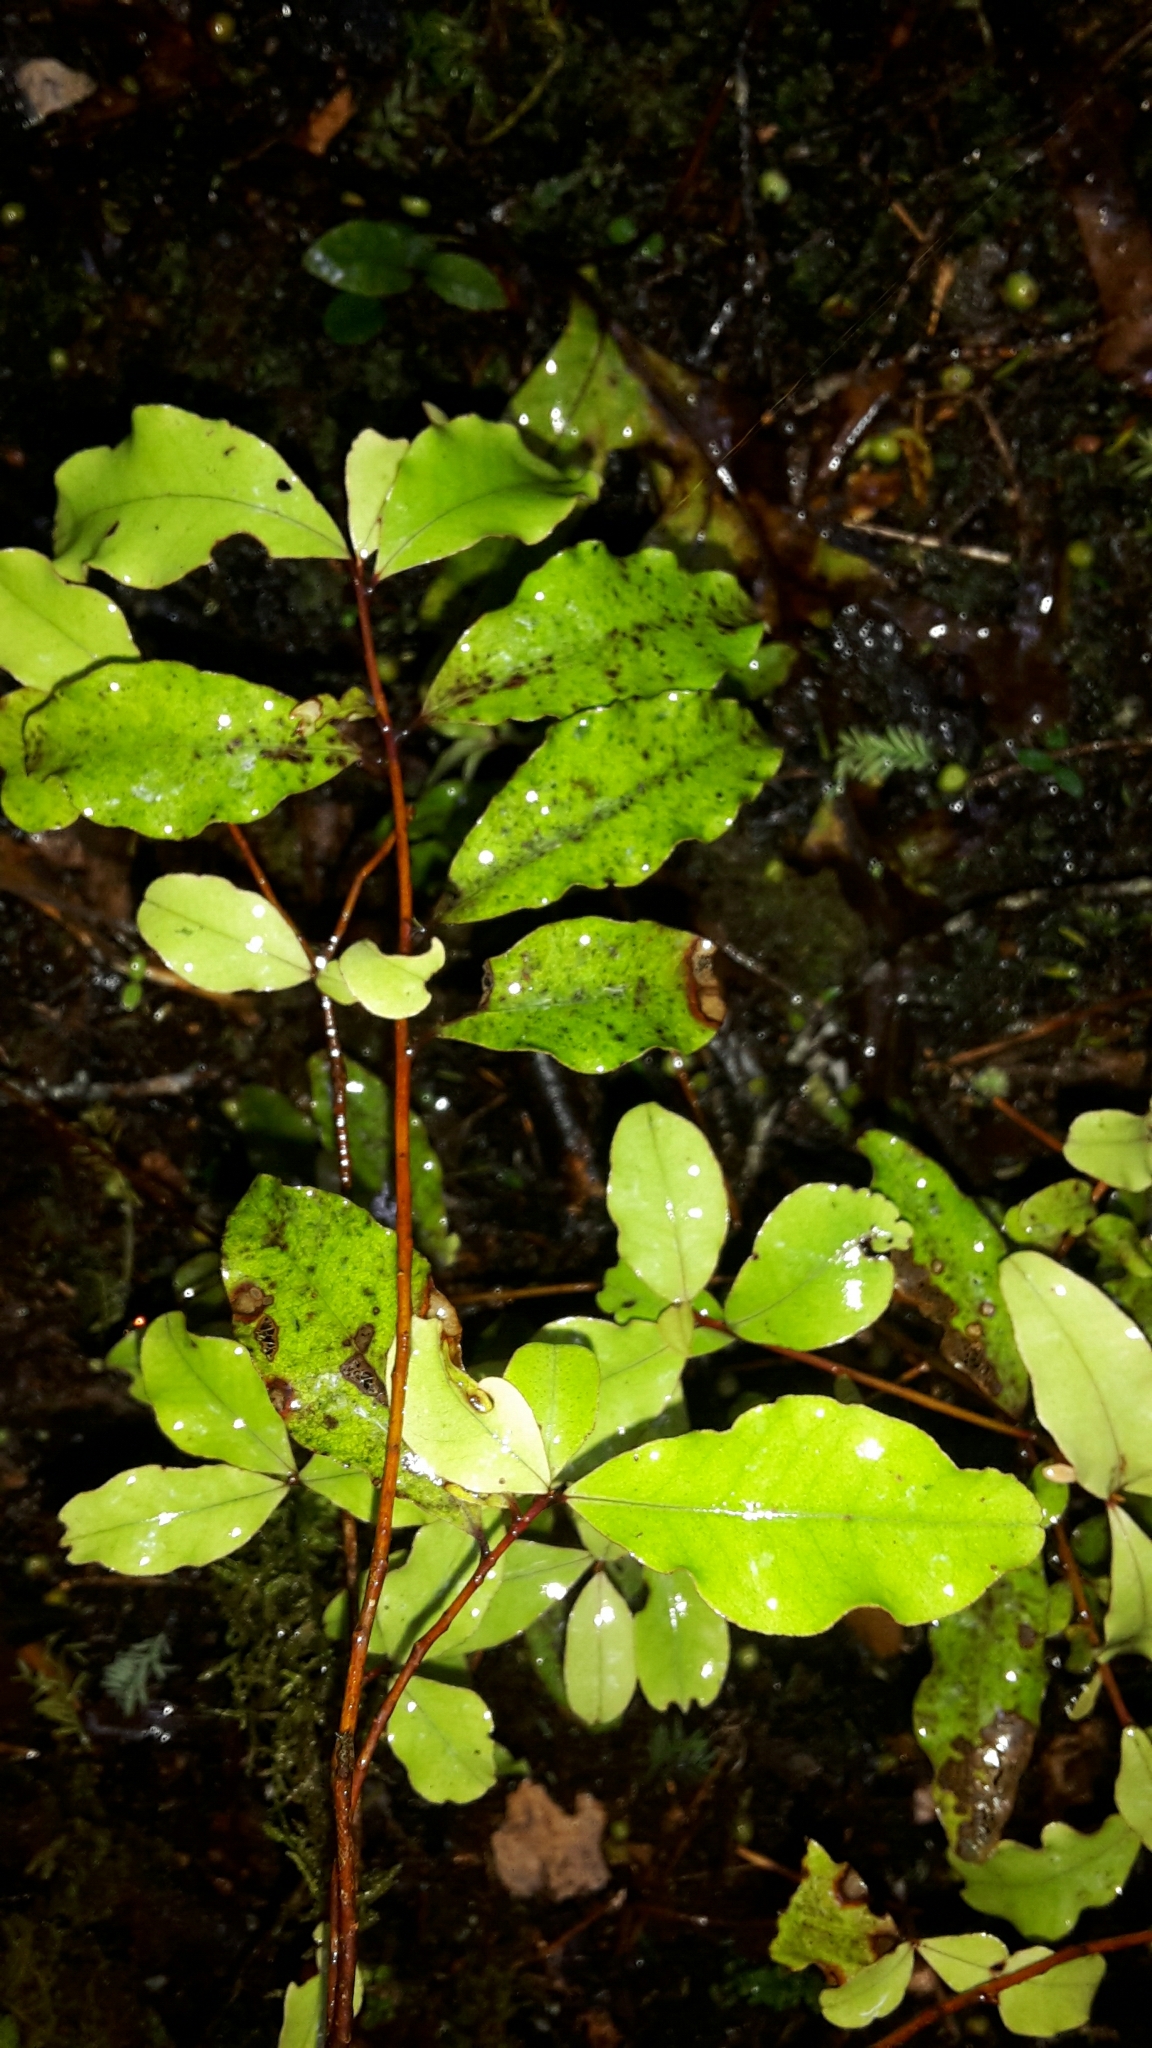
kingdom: Plantae
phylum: Tracheophyta
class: Magnoliopsida
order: Ericales
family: Primulaceae
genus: Myrsine
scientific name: Myrsine australis
